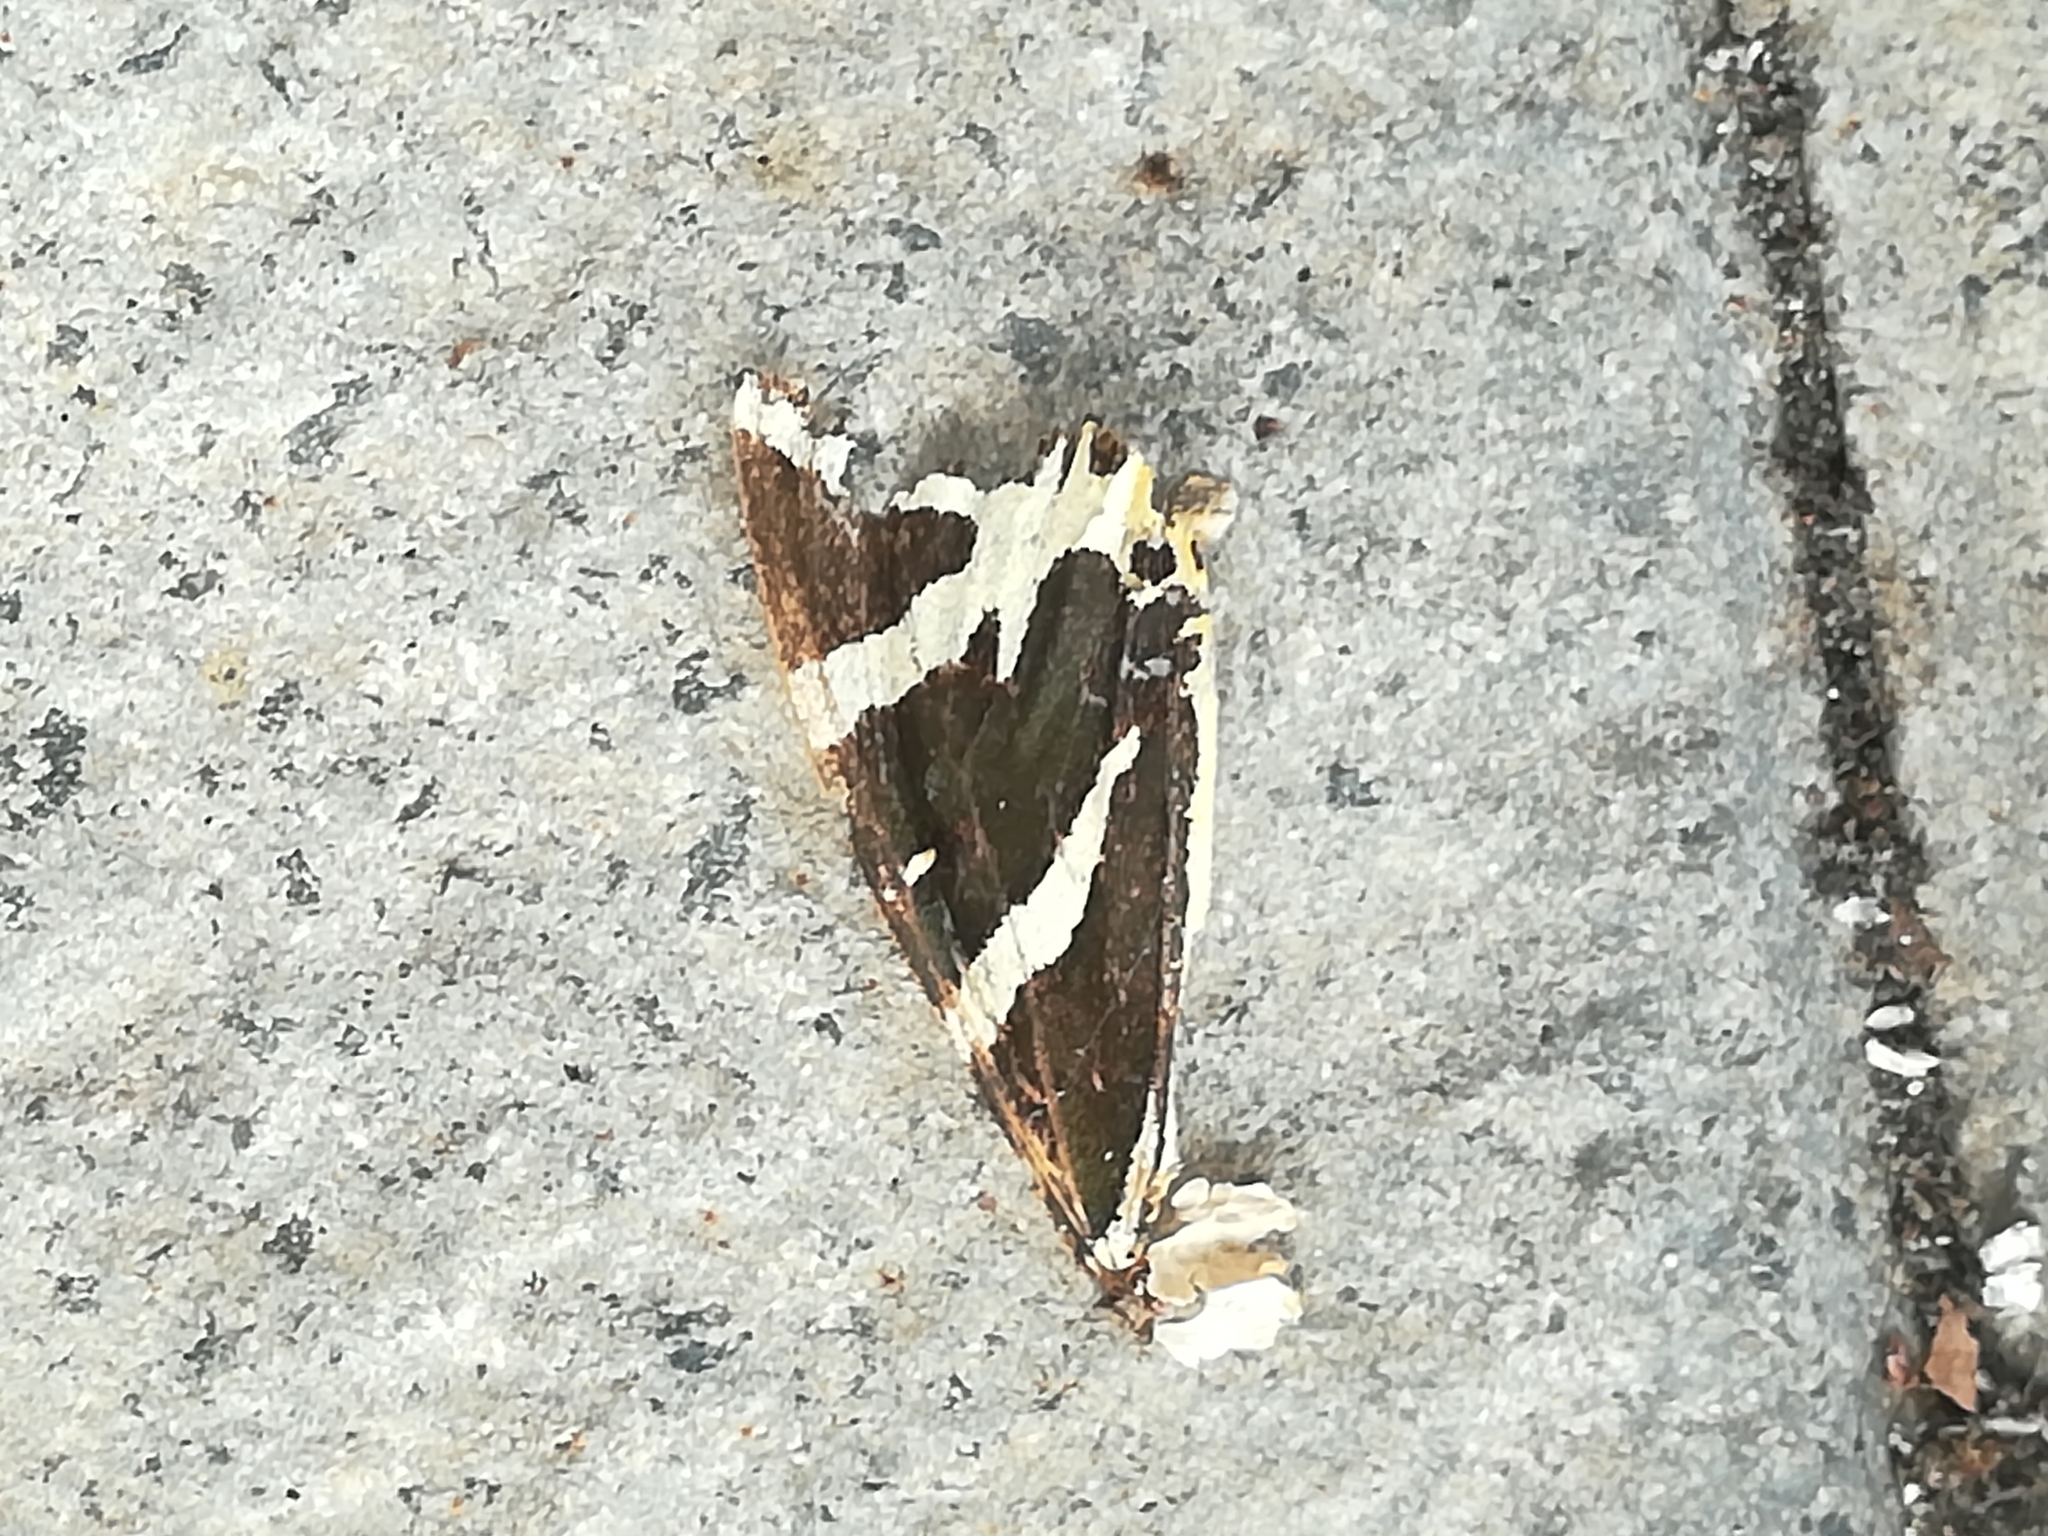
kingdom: Animalia
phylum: Arthropoda
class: Insecta
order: Lepidoptera
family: Erebidae
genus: Euplagia
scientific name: Euplagia quadripunctaria
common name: Jersey tiger
